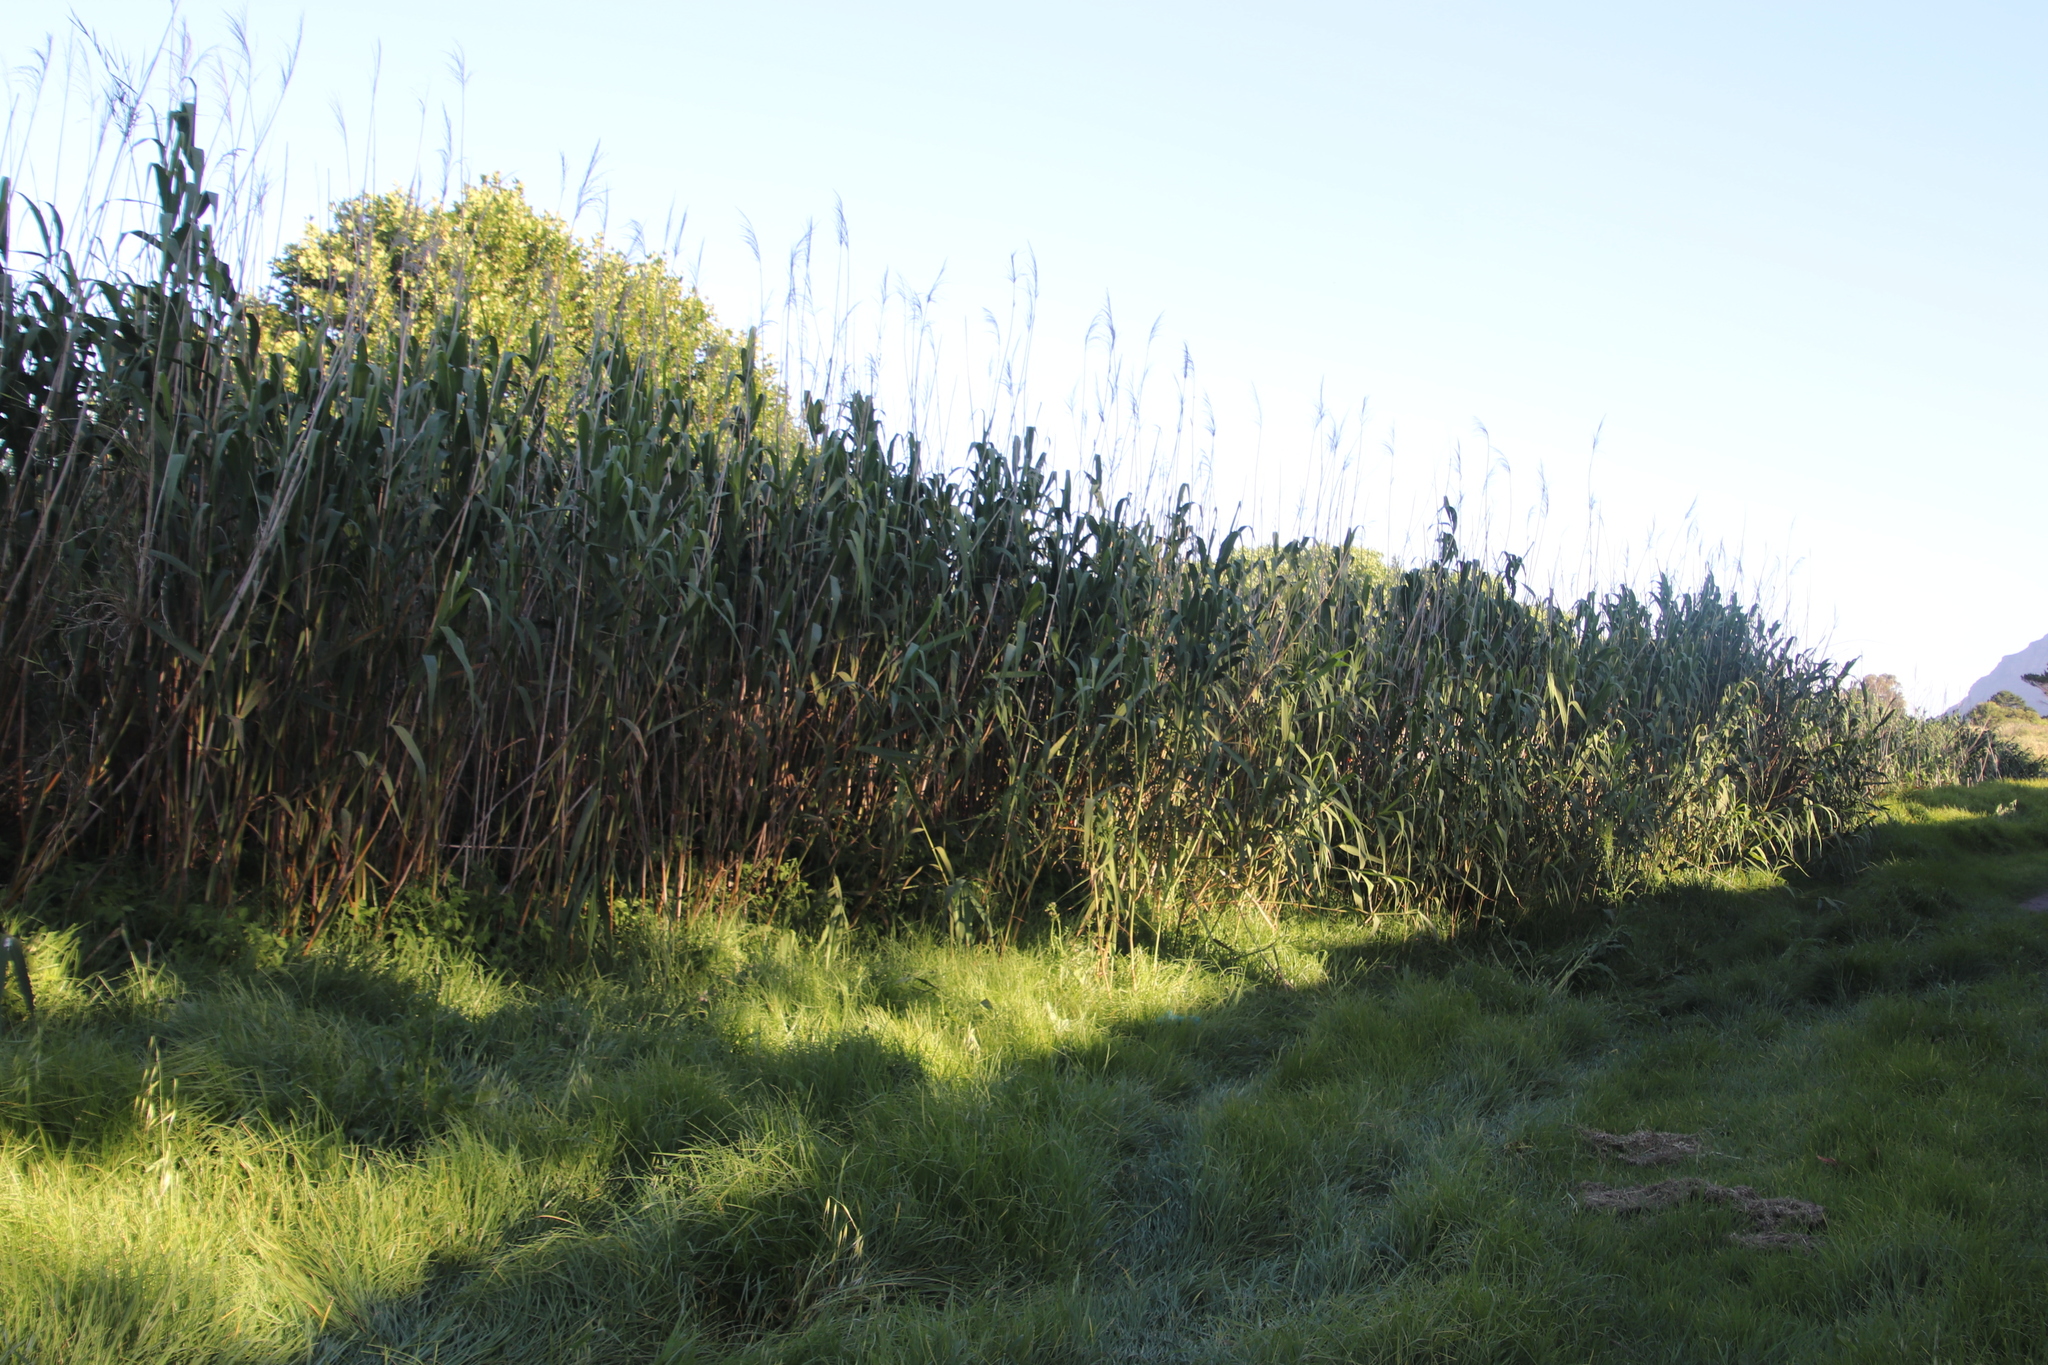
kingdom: Plantae
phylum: Tracheophyta
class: Liliopsida
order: Poales
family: Poaceae
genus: Phragmites
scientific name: Phragmites australis
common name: Common reed
